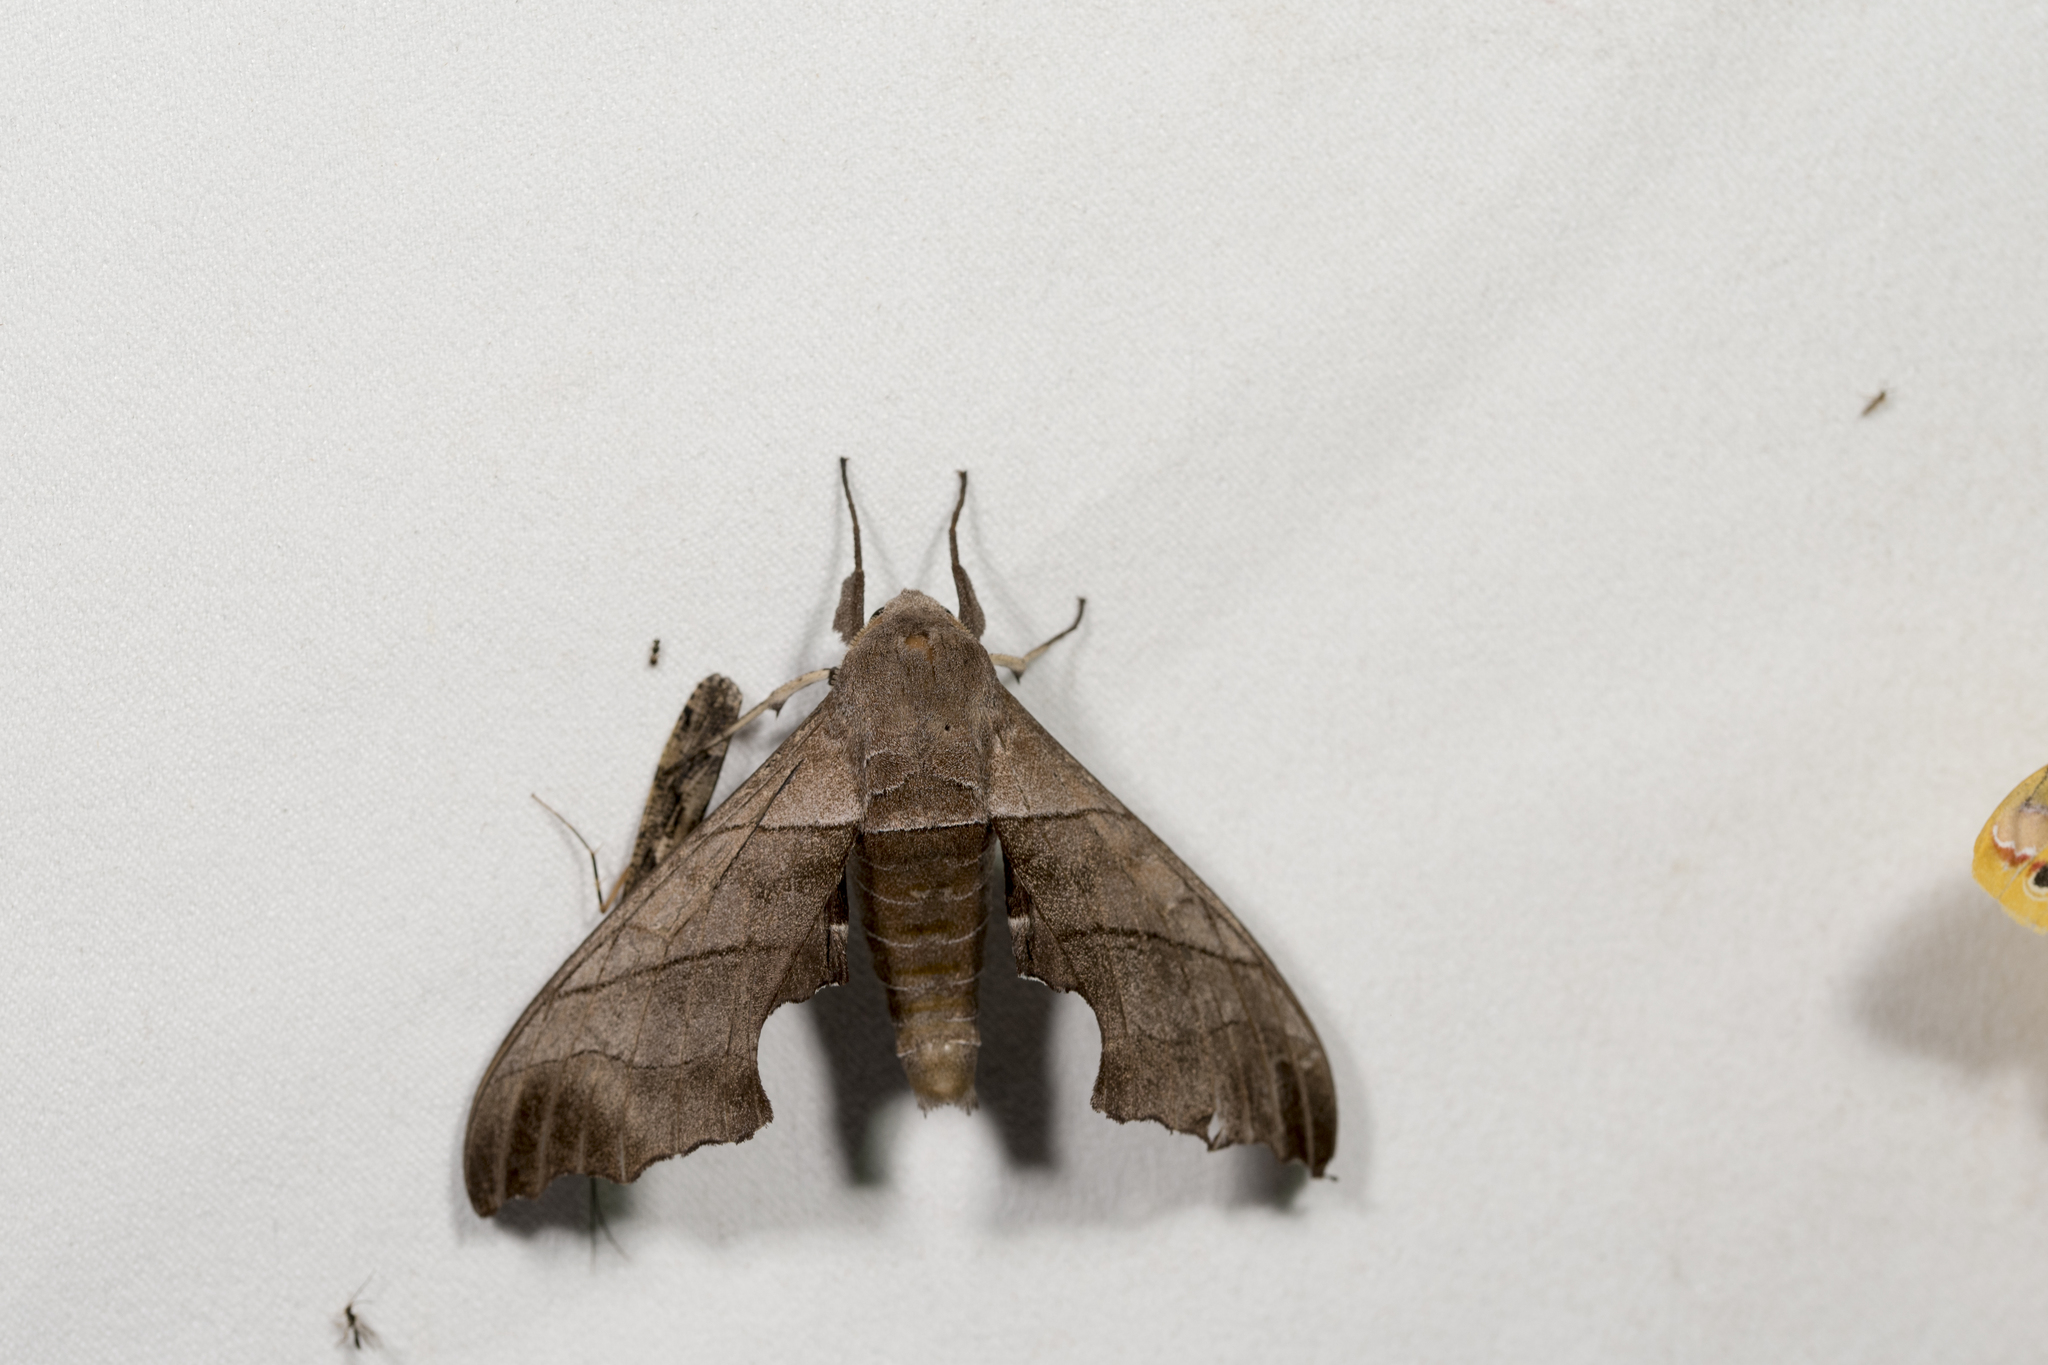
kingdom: Animalia
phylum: Arthropoda
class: Insecta
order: Lepidoptera
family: Sphingidae
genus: Polyptychus
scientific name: Polyptychus chinensis
